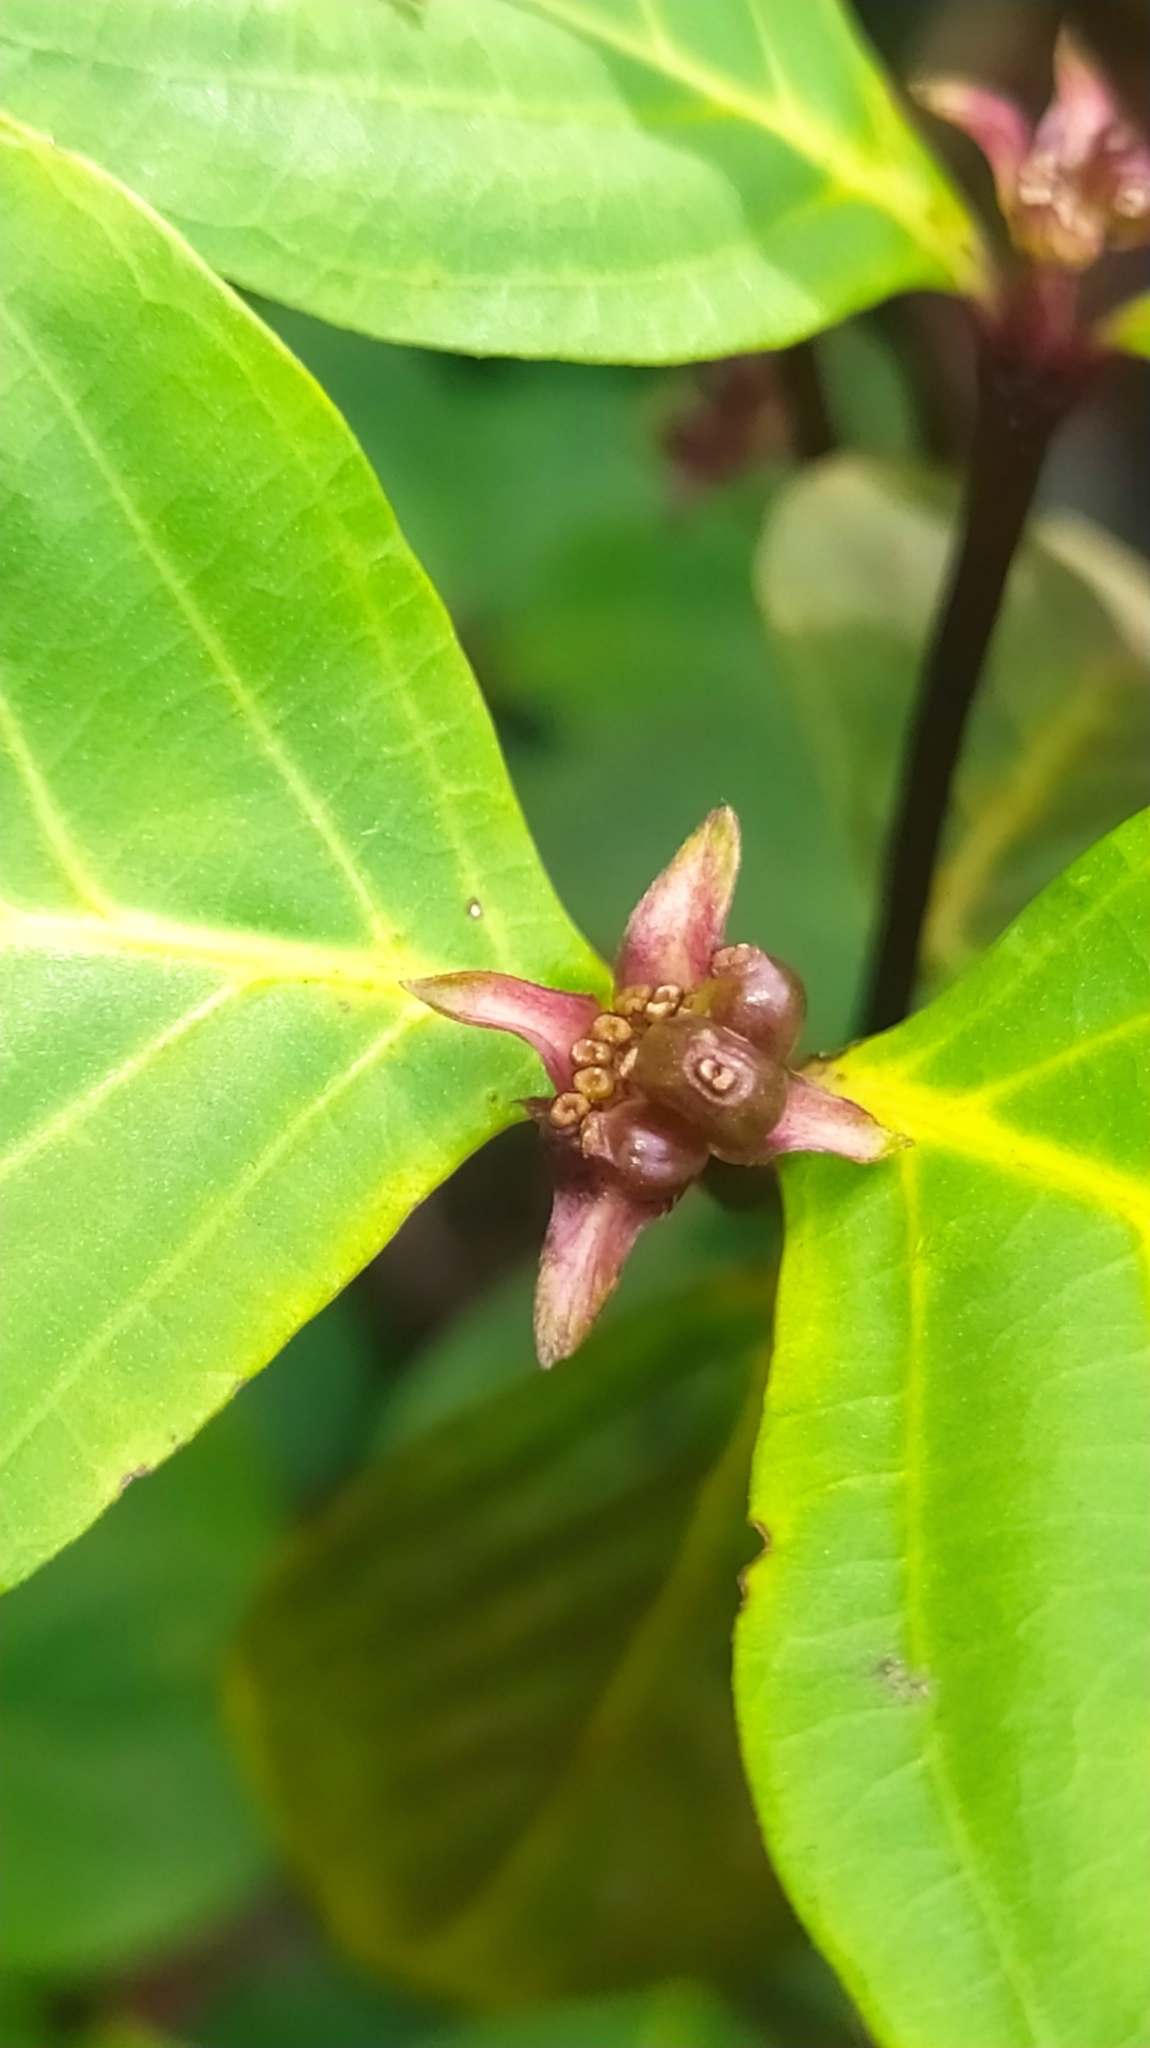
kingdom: Plantae
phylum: Tracheophyta
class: Magnoliopsida
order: Gentianales
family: Rubiaceae
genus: Palicourea
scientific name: Palicourea hoffmannseggiana
